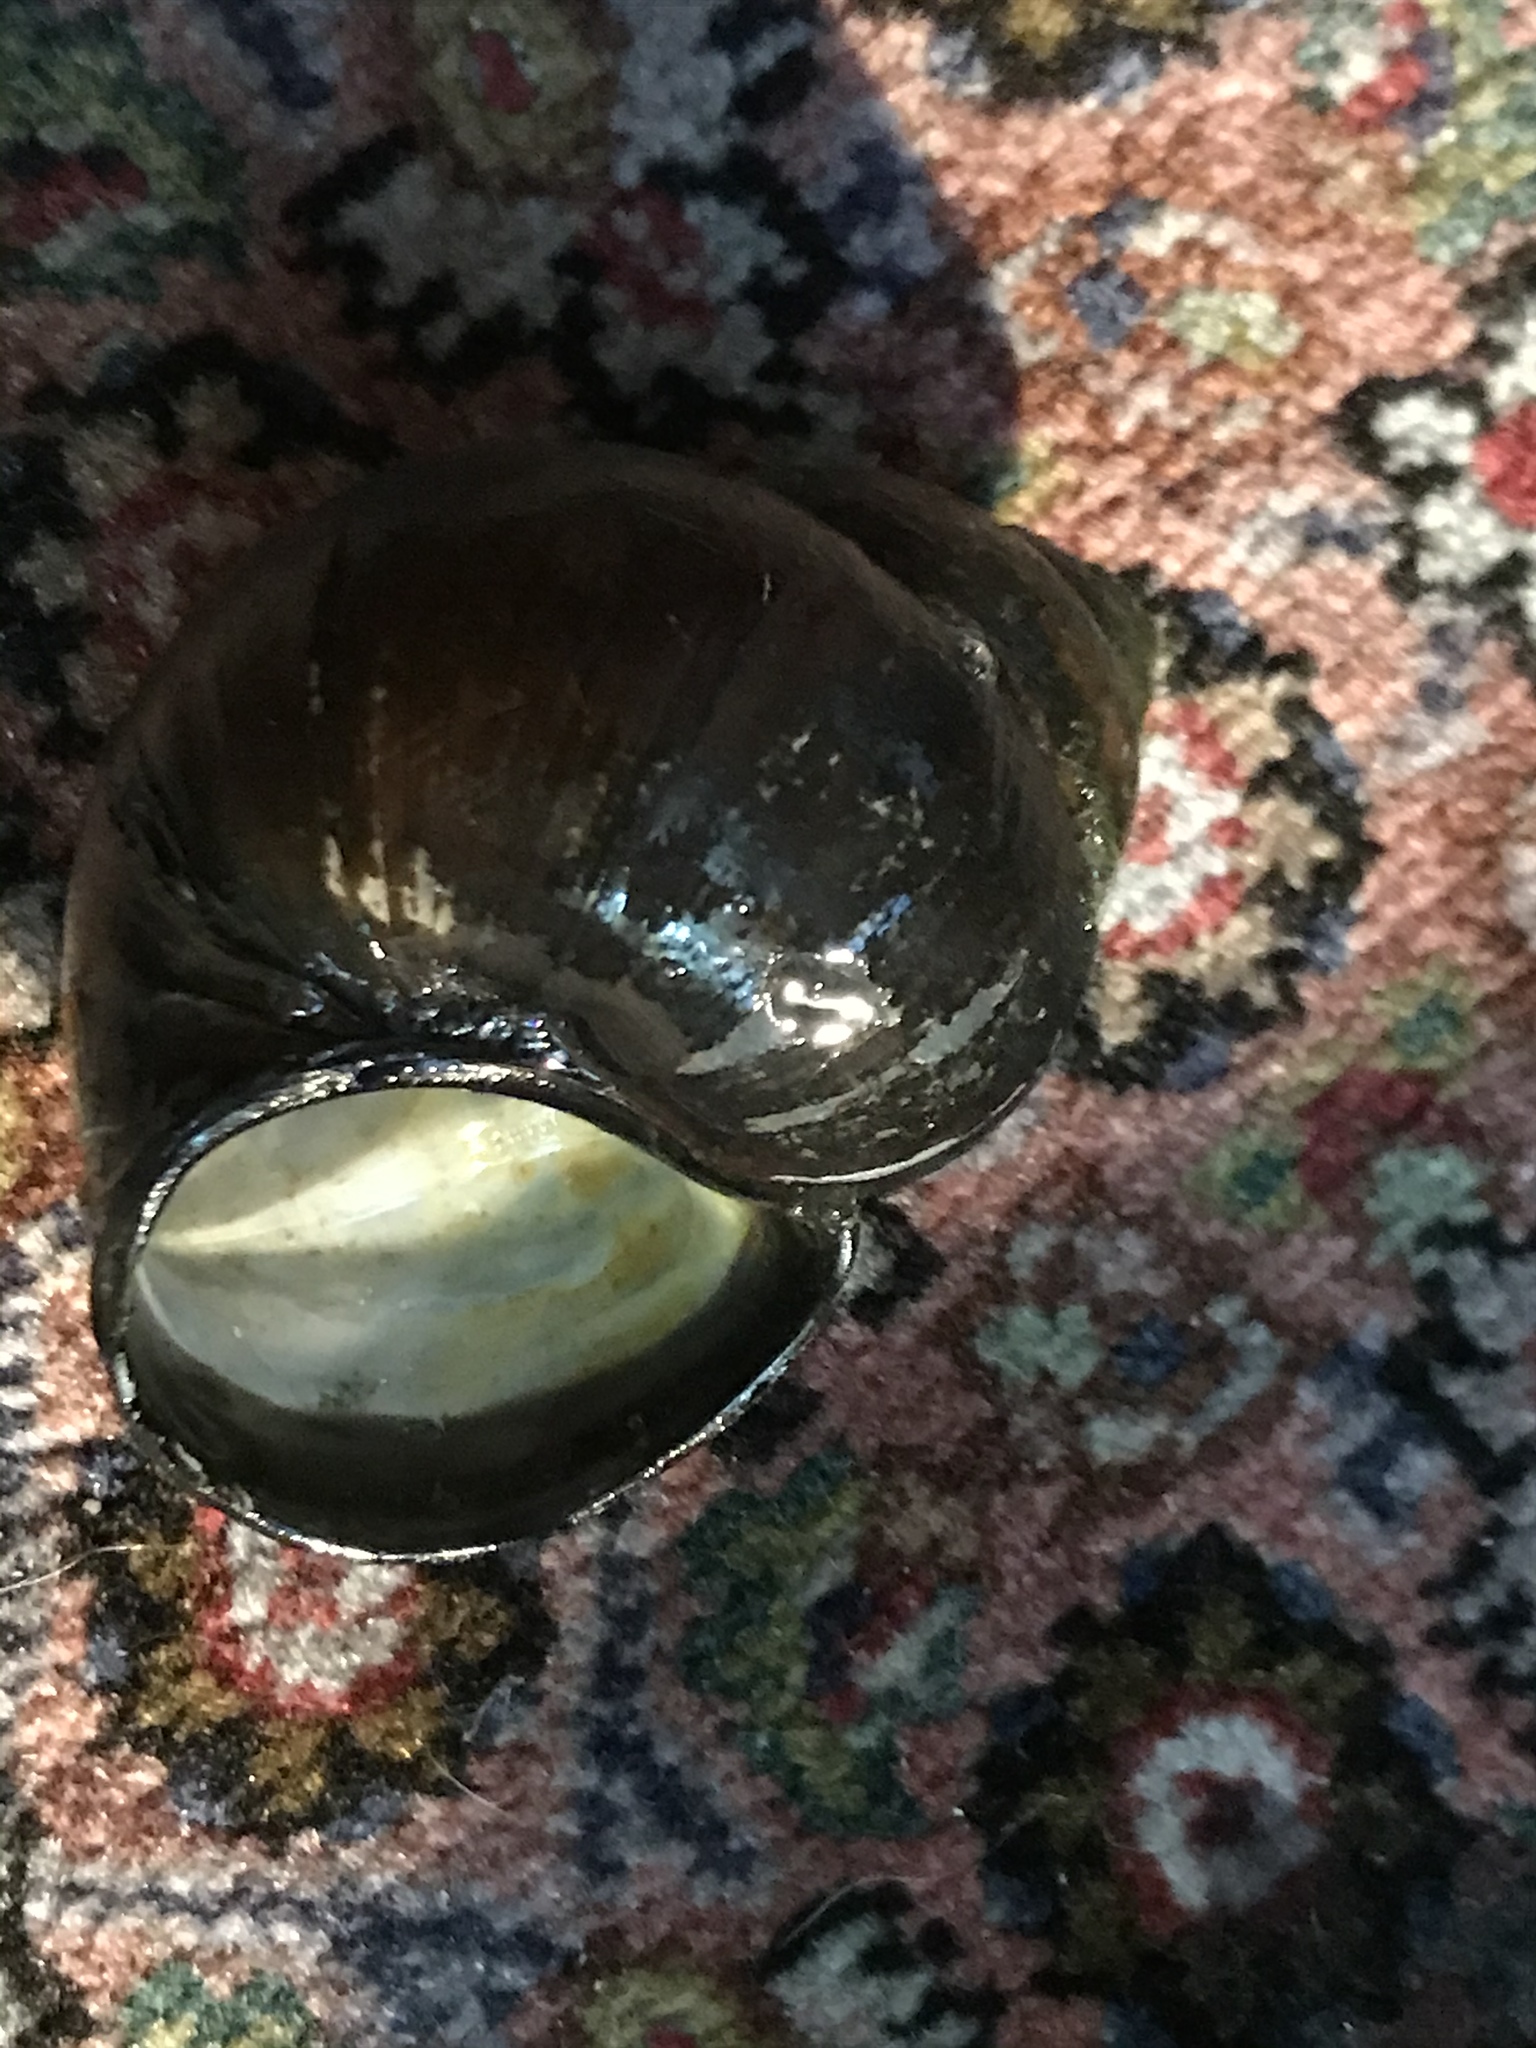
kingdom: Animalia
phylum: Mollusca
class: Gastropoda
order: Architaenioglossa
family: Viviparidae
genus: Cipangopaludina
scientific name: Cipangopaludina chinensis
